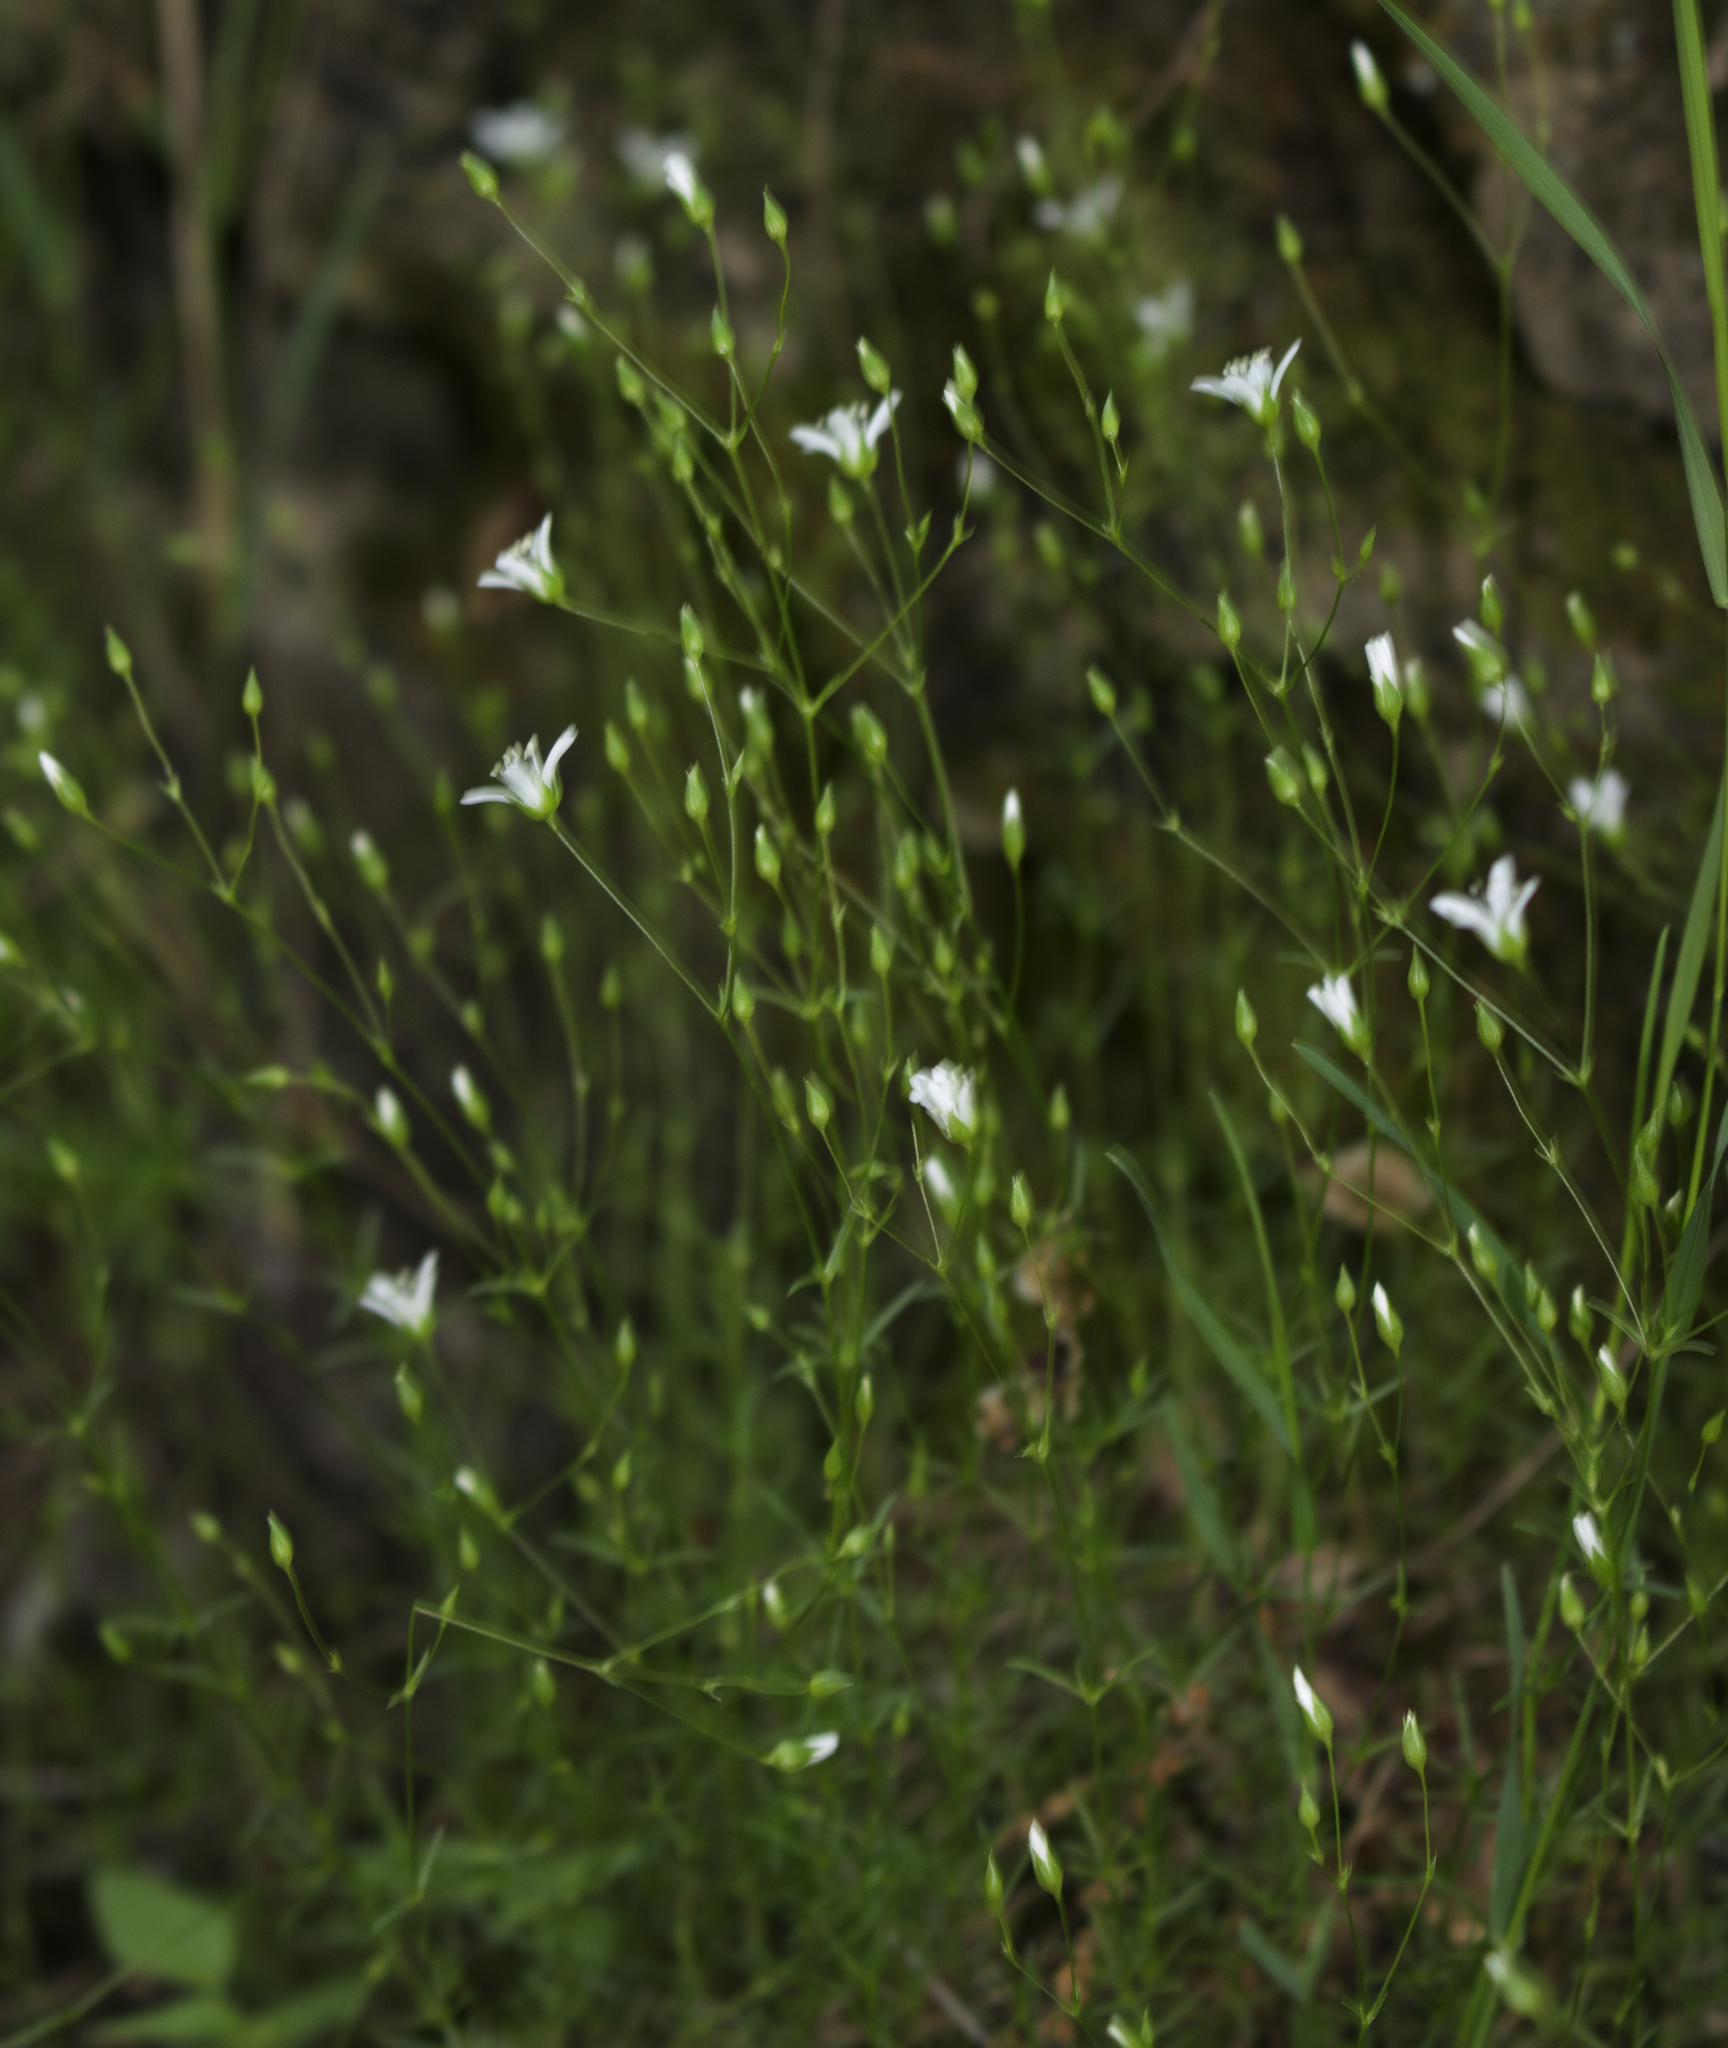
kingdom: Plantae
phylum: Tracheophyta
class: Magnoliopsida
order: Caryophyllales
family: Caryophyllaceae
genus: Sabulina
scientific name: Sabulina michauxii
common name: Michaux's stitchwort
